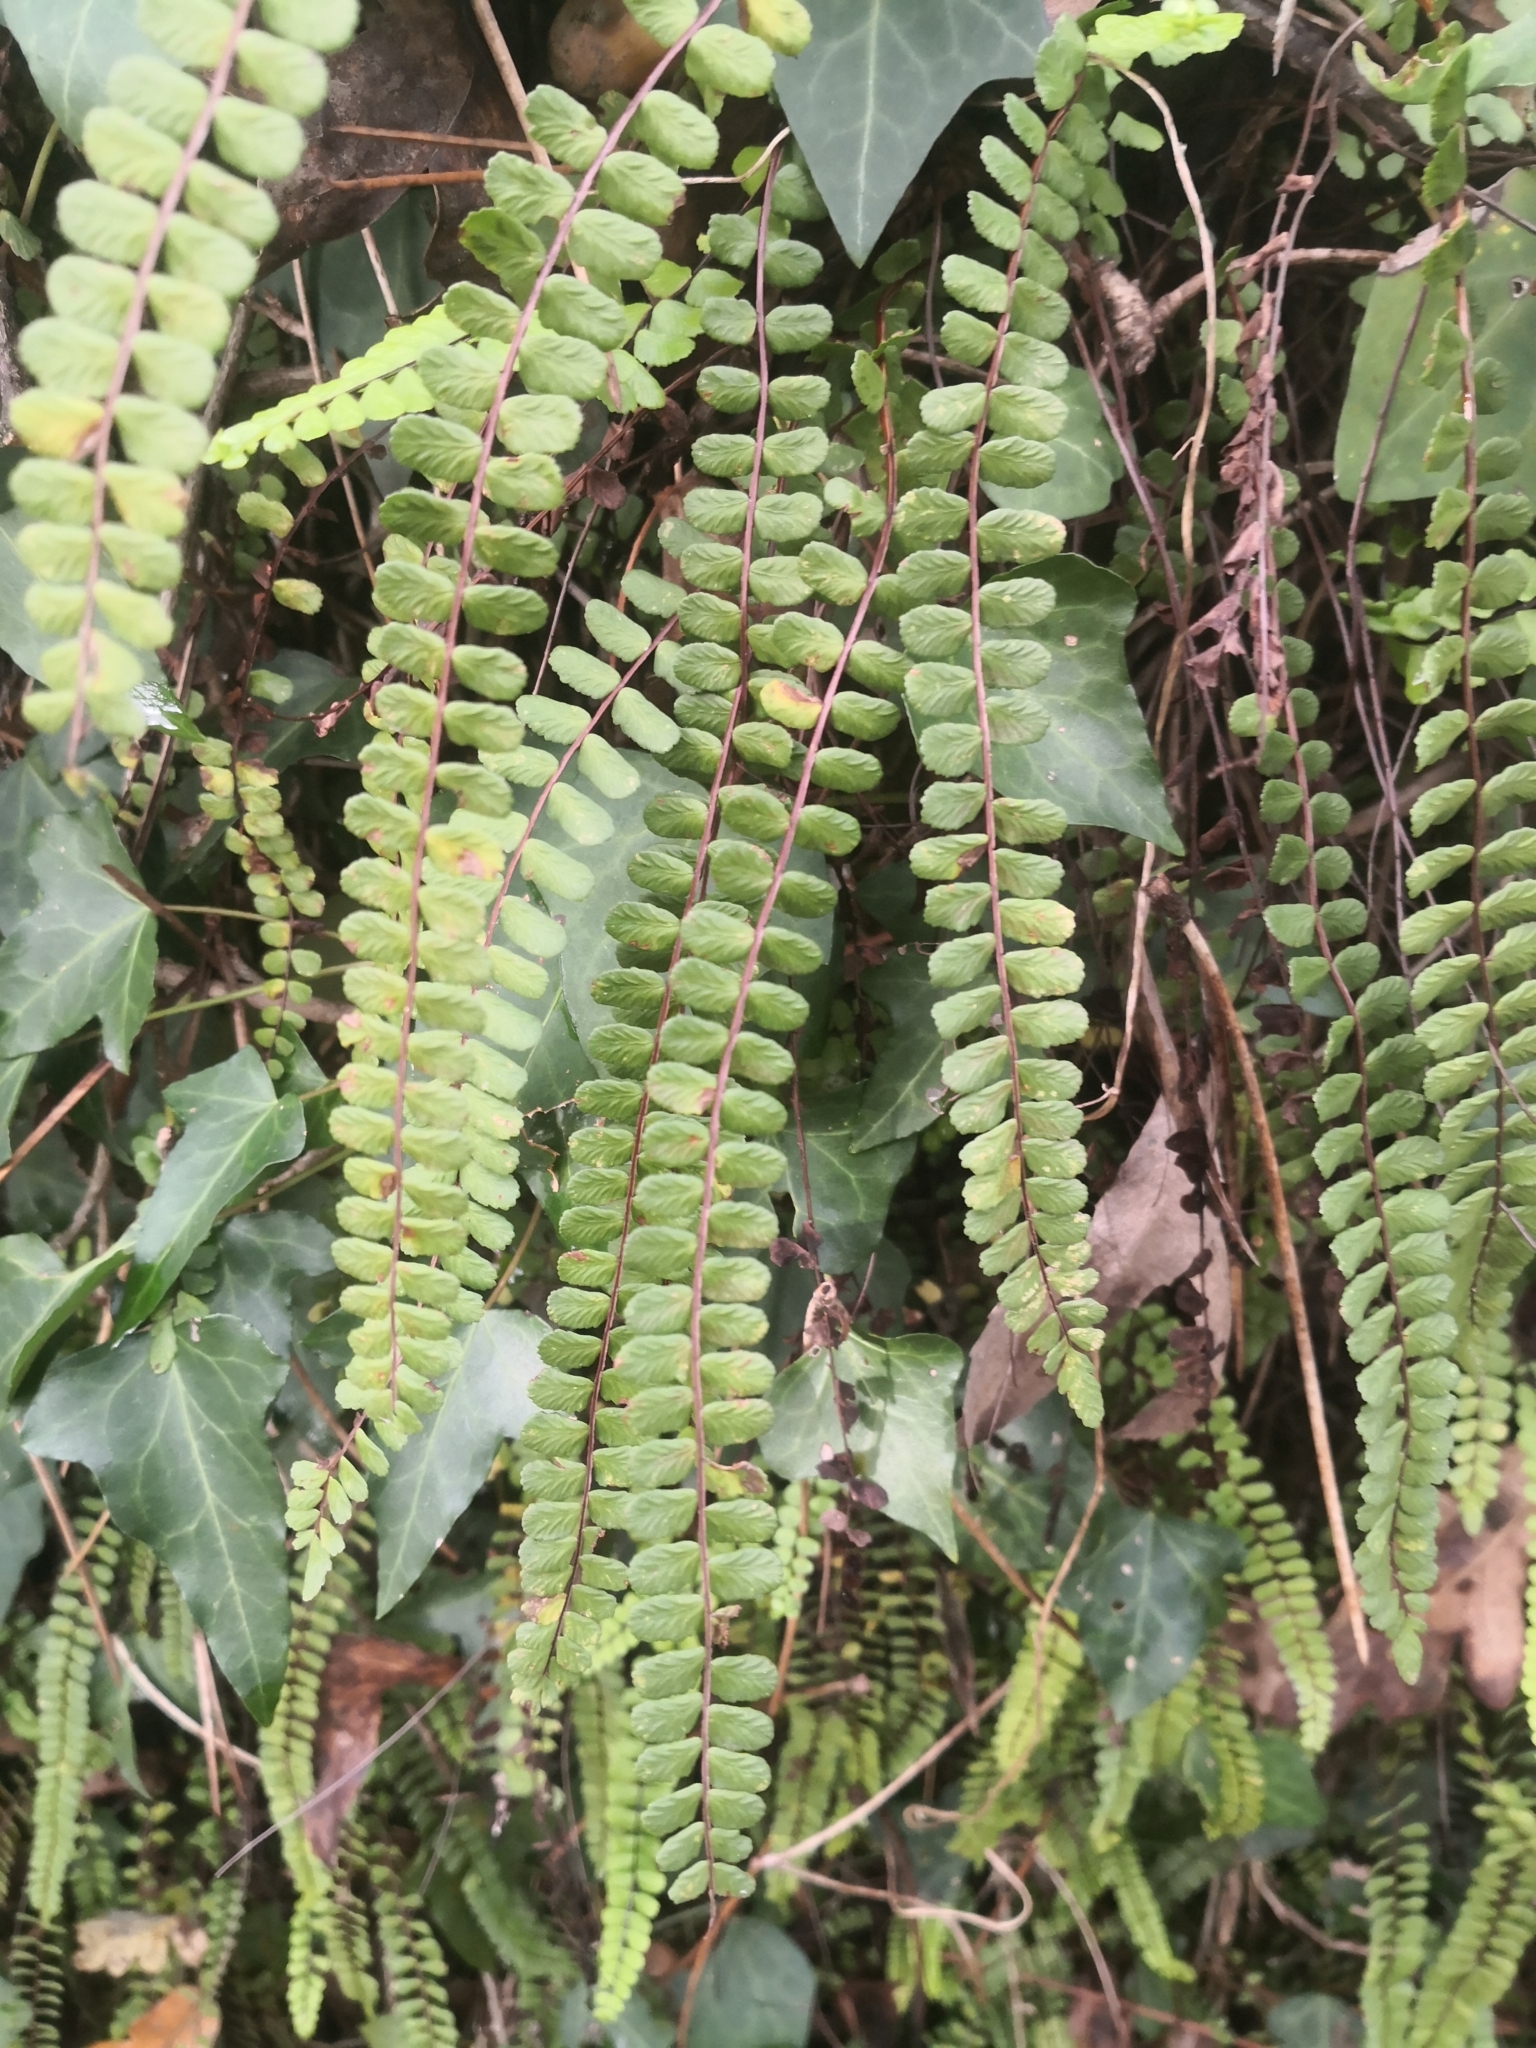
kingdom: Plantae
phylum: Tracheophyta
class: Polypodiopsida
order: Polypodiales
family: Aspleniaceae
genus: Asplenium
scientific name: Asplenium trichomanes
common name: Maidenhair spleenwort
